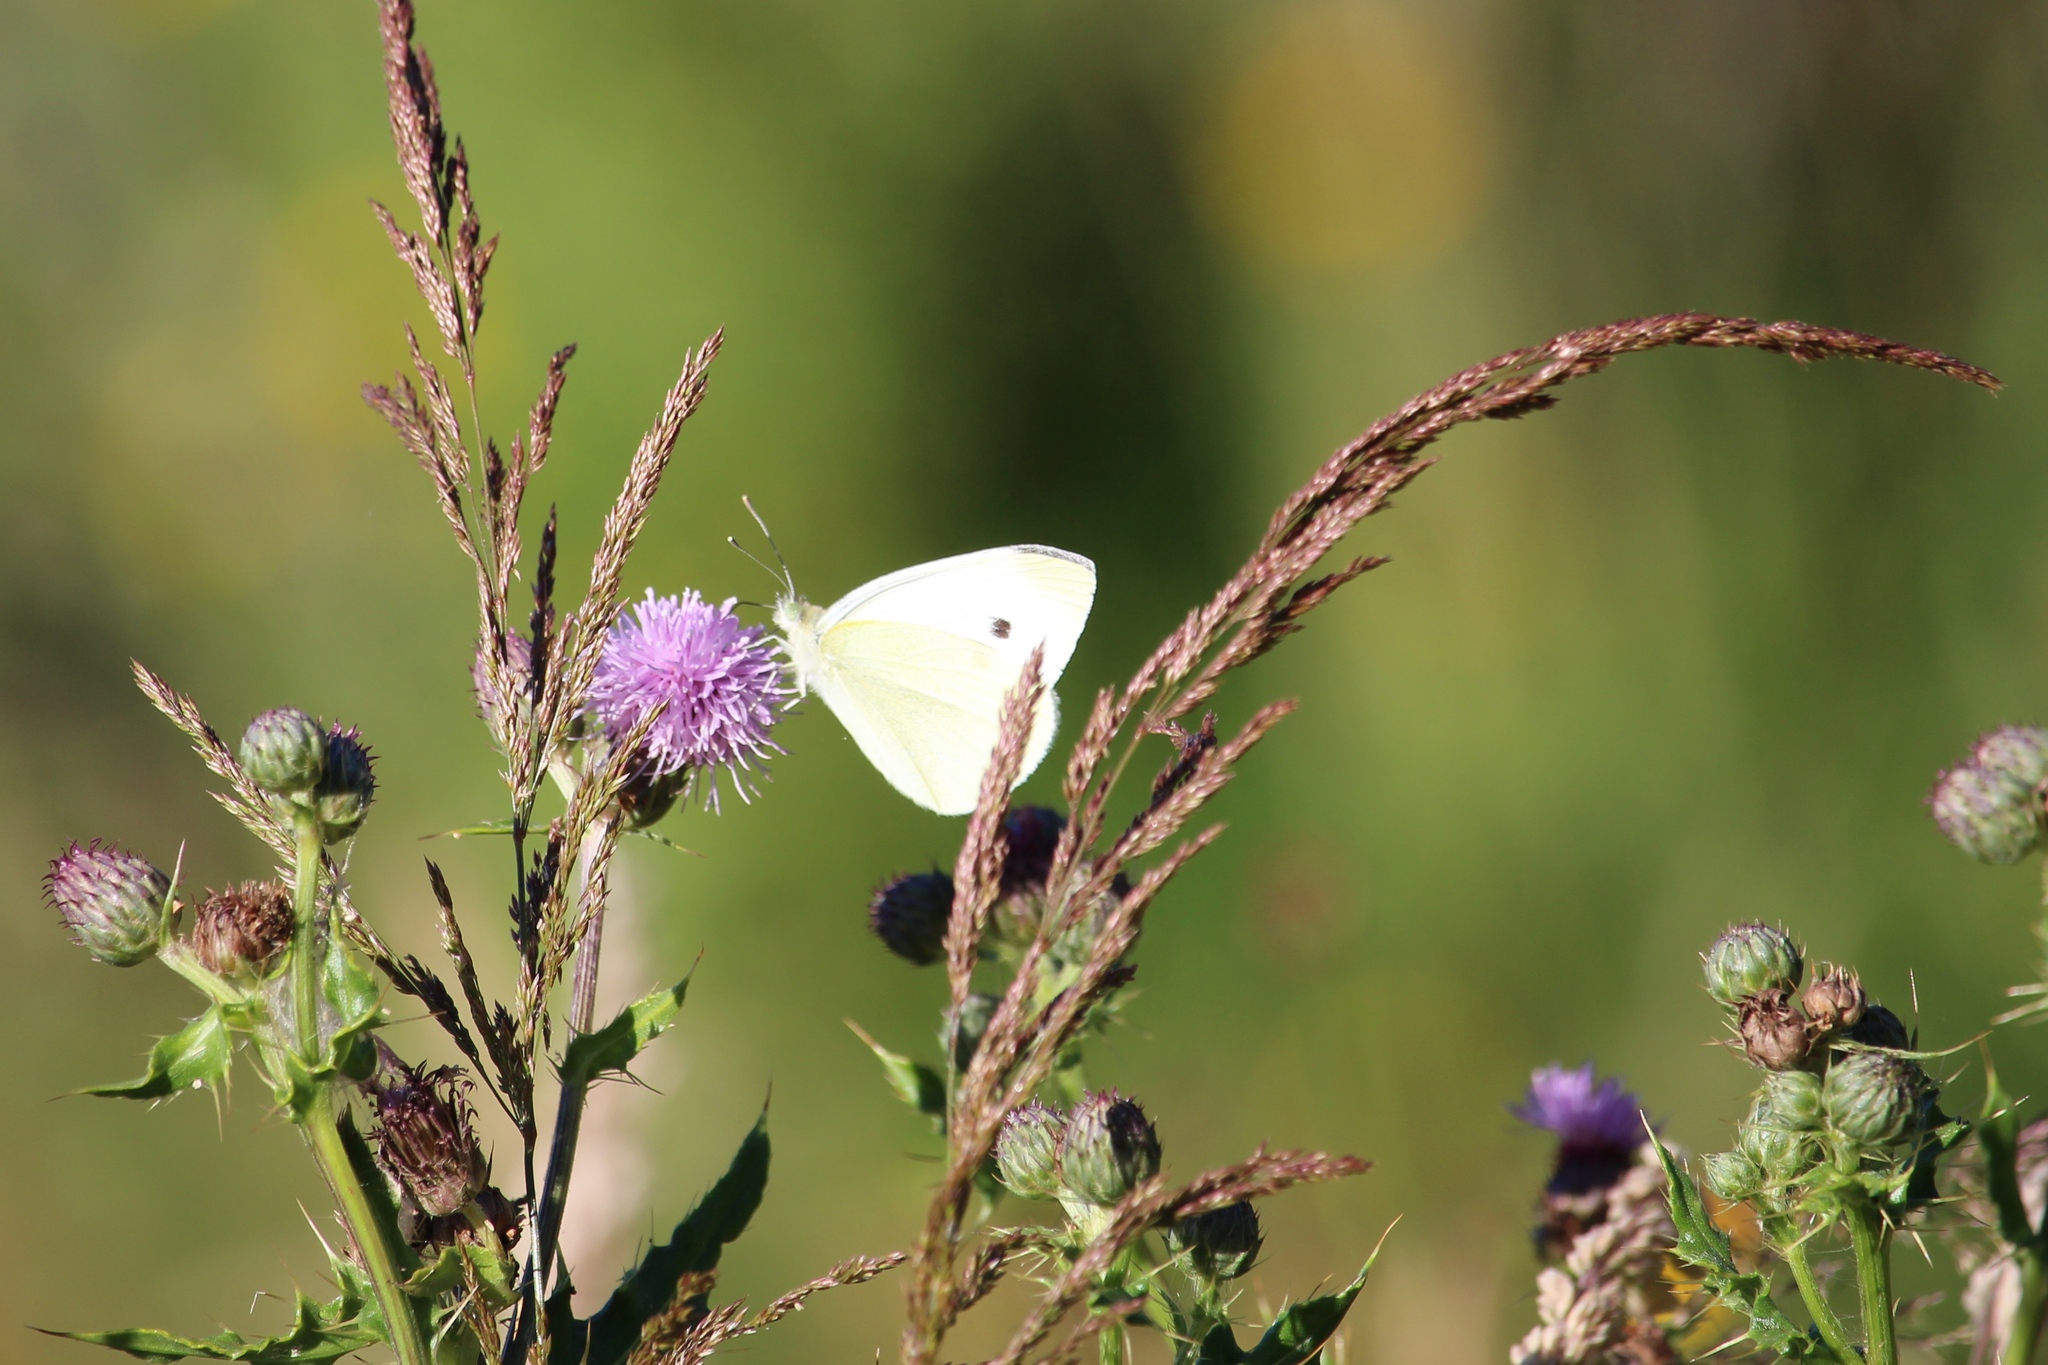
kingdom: Animalia
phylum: Arthropoda
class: Insecta
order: Lepidoptera
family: Pieridae
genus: Pieris
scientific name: Pieris rapae
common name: Small white
